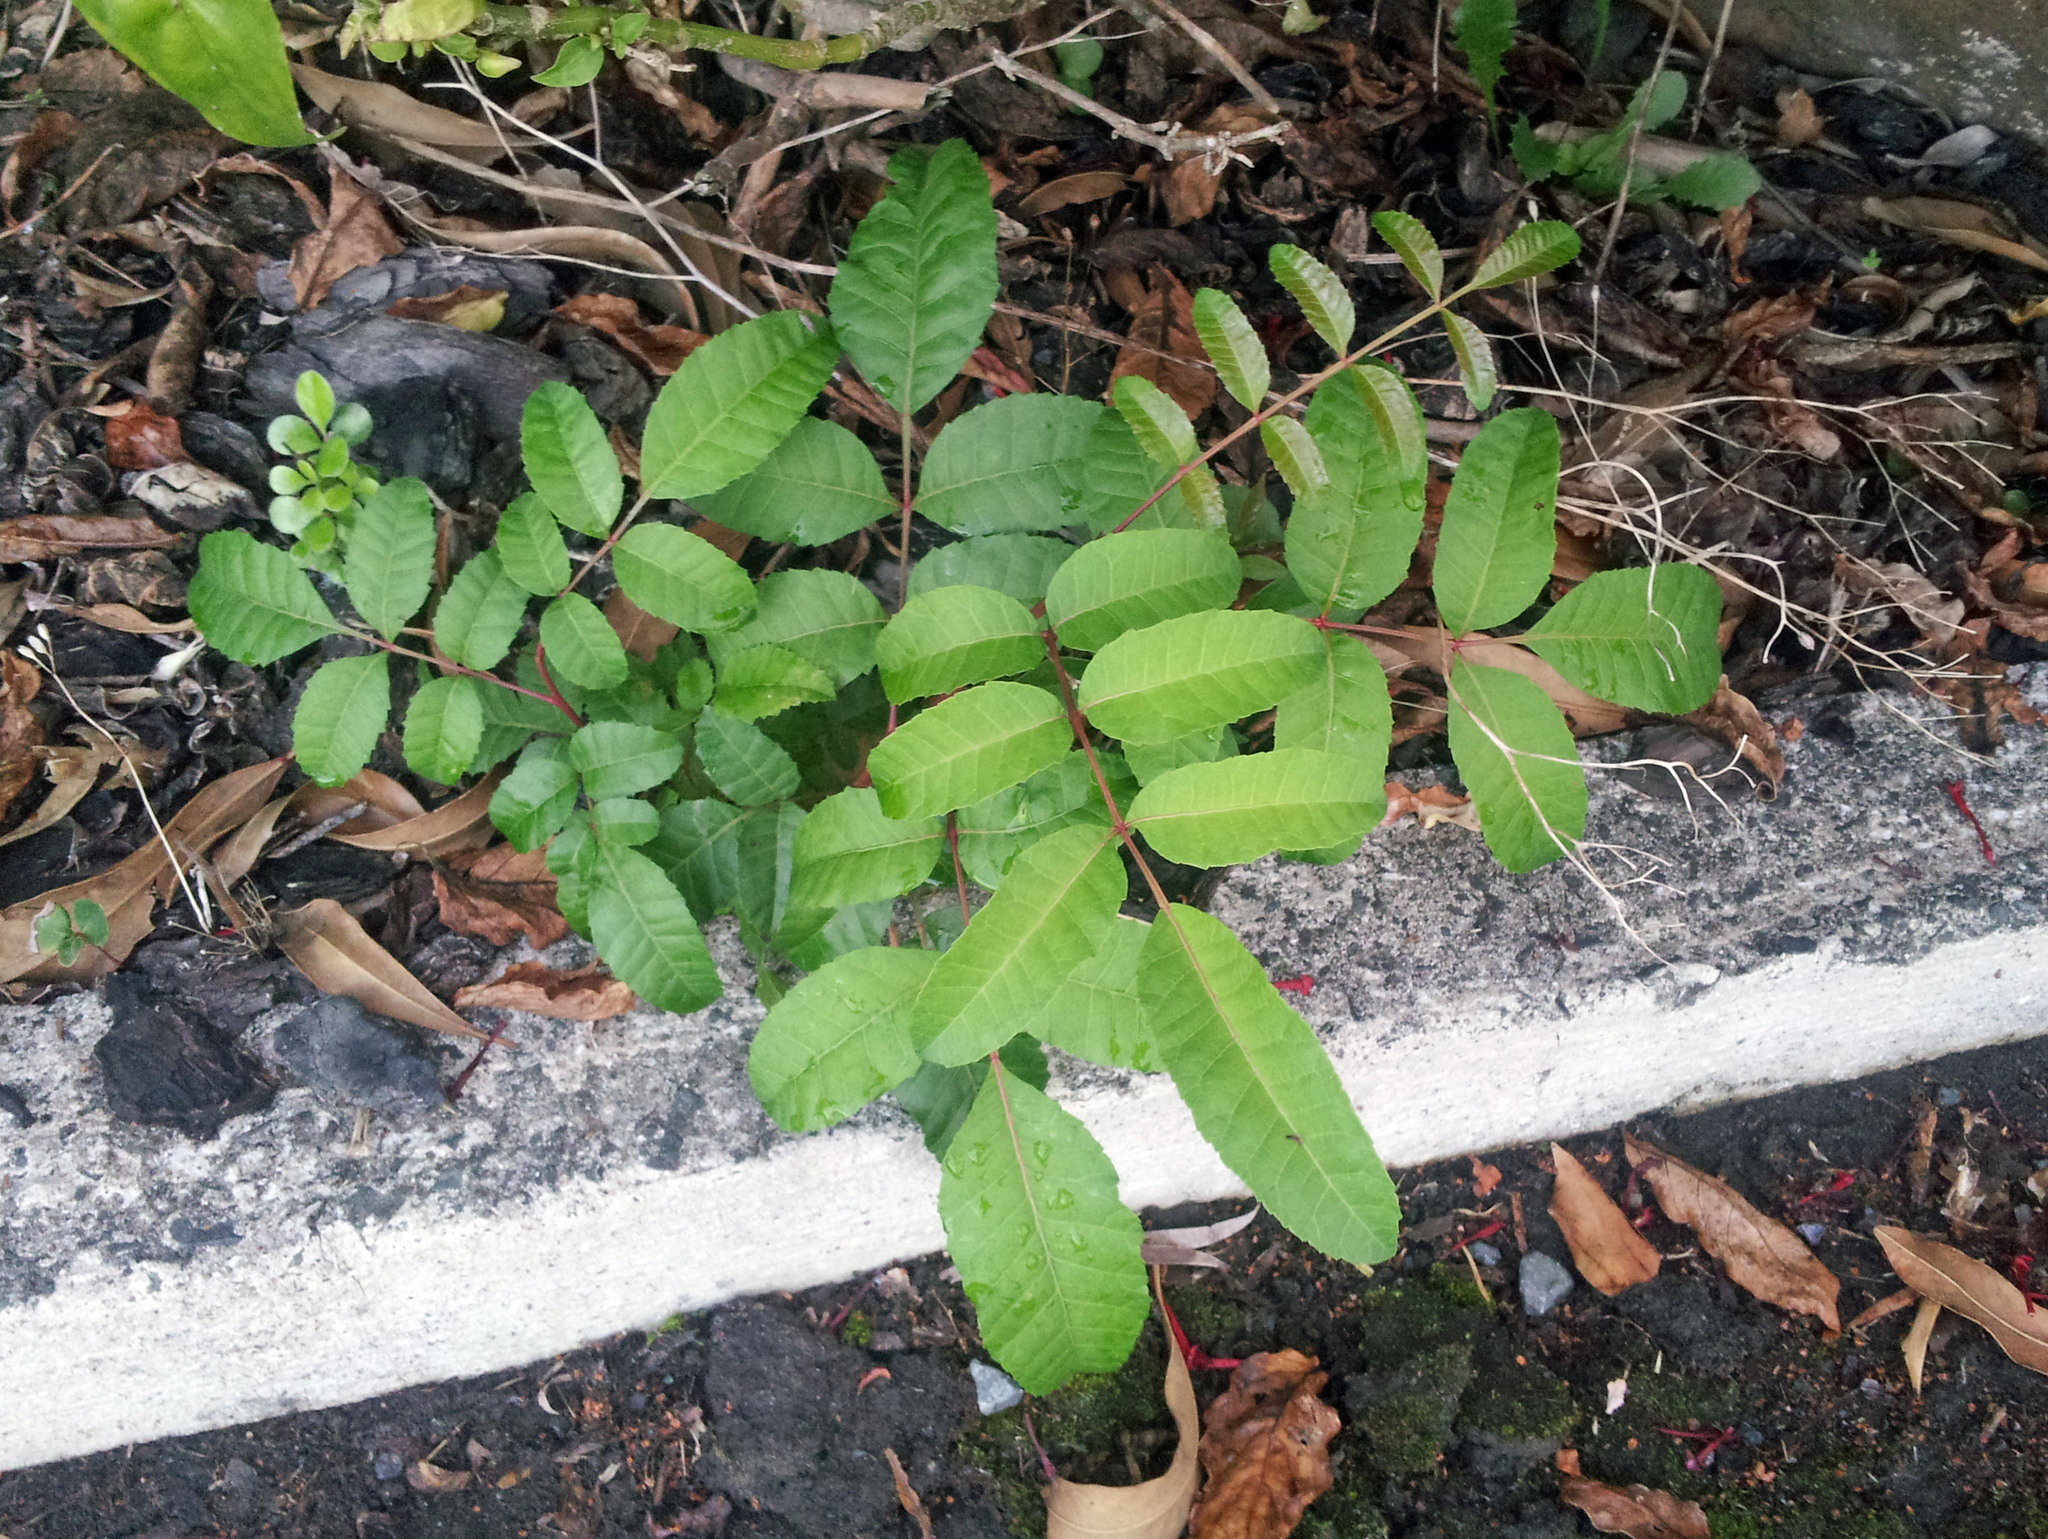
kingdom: Plantae
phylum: Tracheophyta
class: Magnoliopsida
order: Sapindales
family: Anacardiaceae
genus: Schinus
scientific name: Schinus terebinthifolia
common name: Brazilian peppertree
